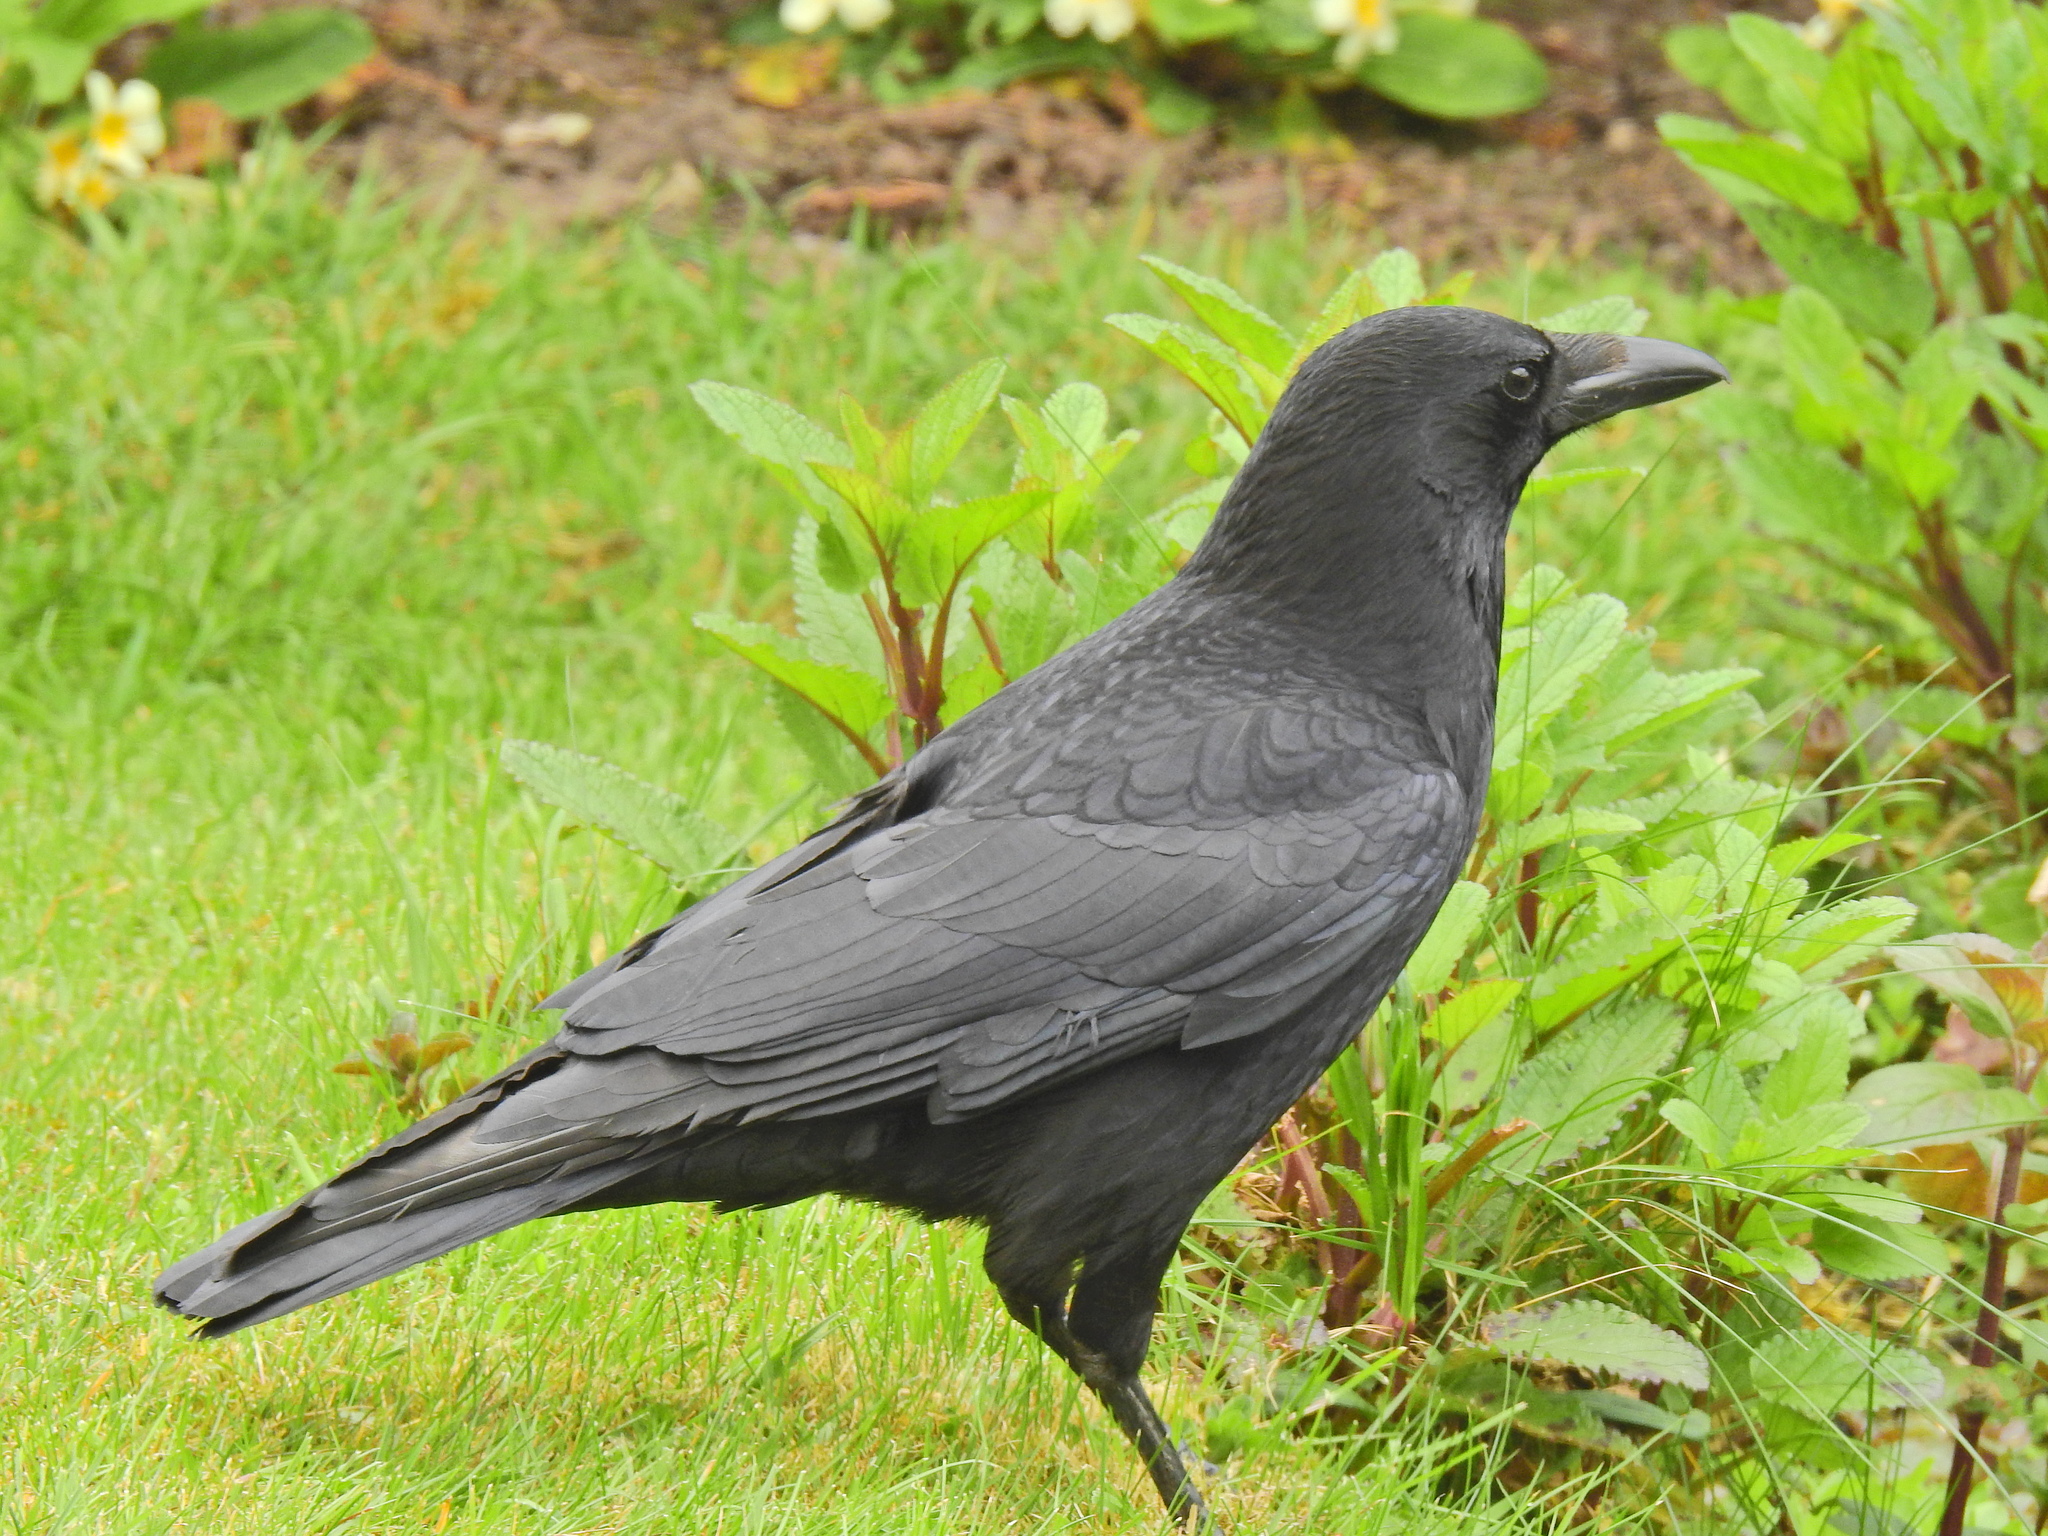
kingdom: Animalia
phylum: Chordata
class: Aves
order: Passeriformes
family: Corvidae
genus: Corvus
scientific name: Corvus corone
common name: Carrion crow
